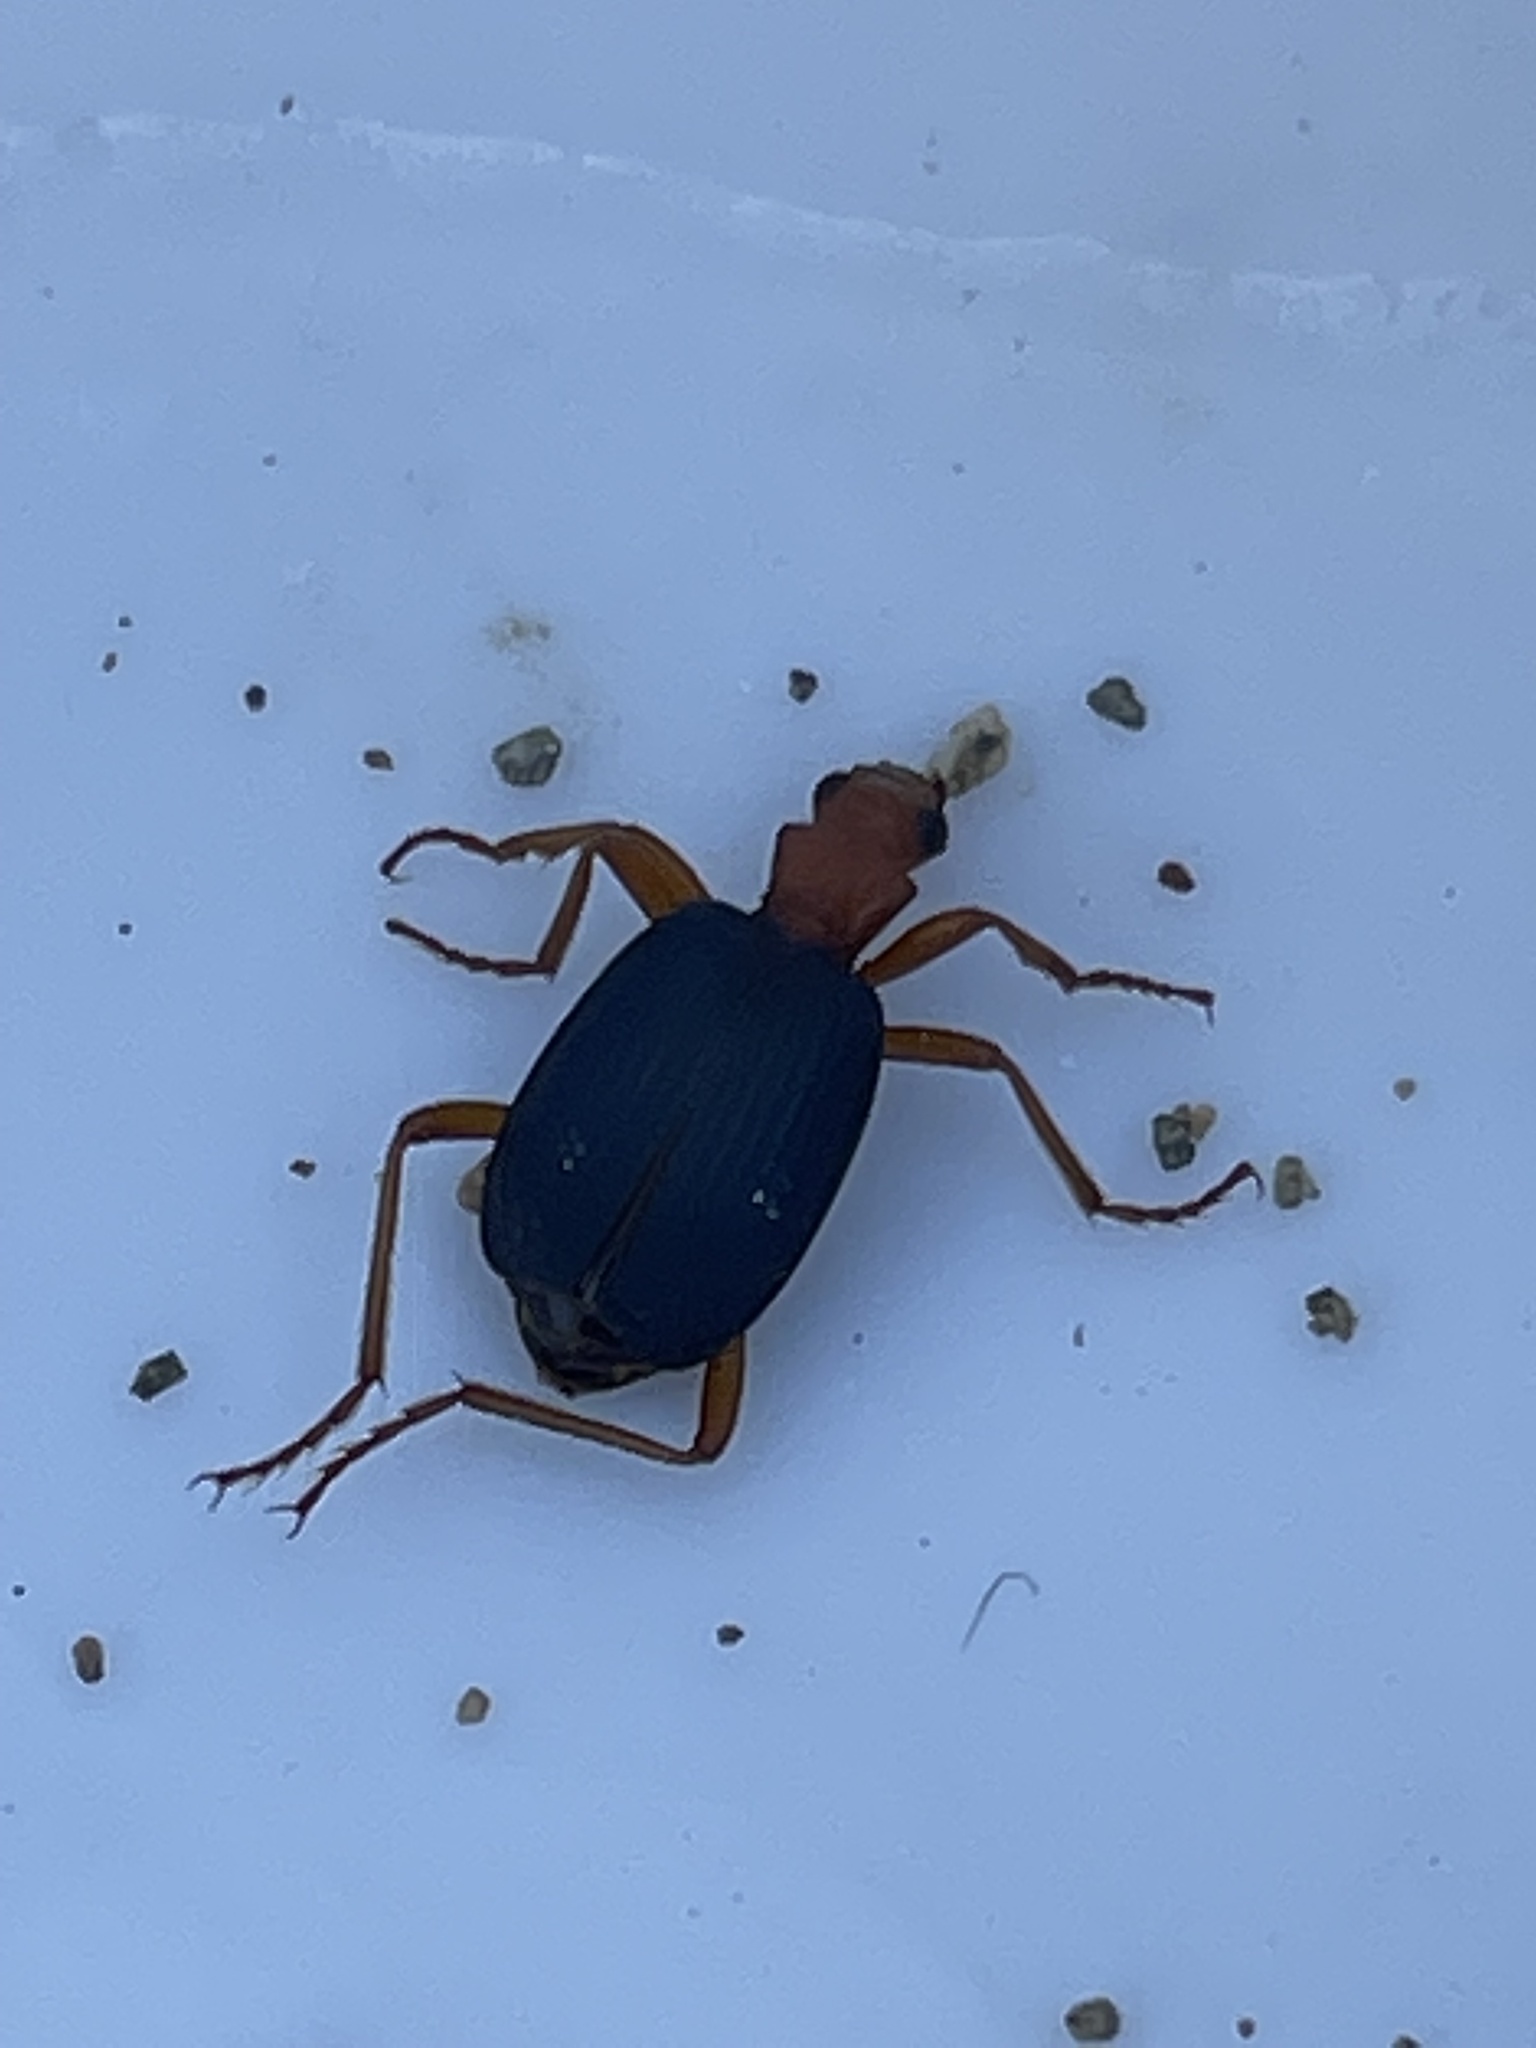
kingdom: Animalia
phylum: Arthropoda
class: Insecta
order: Coleoptera
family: Carabidae
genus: Brachinus
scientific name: Brachinus
